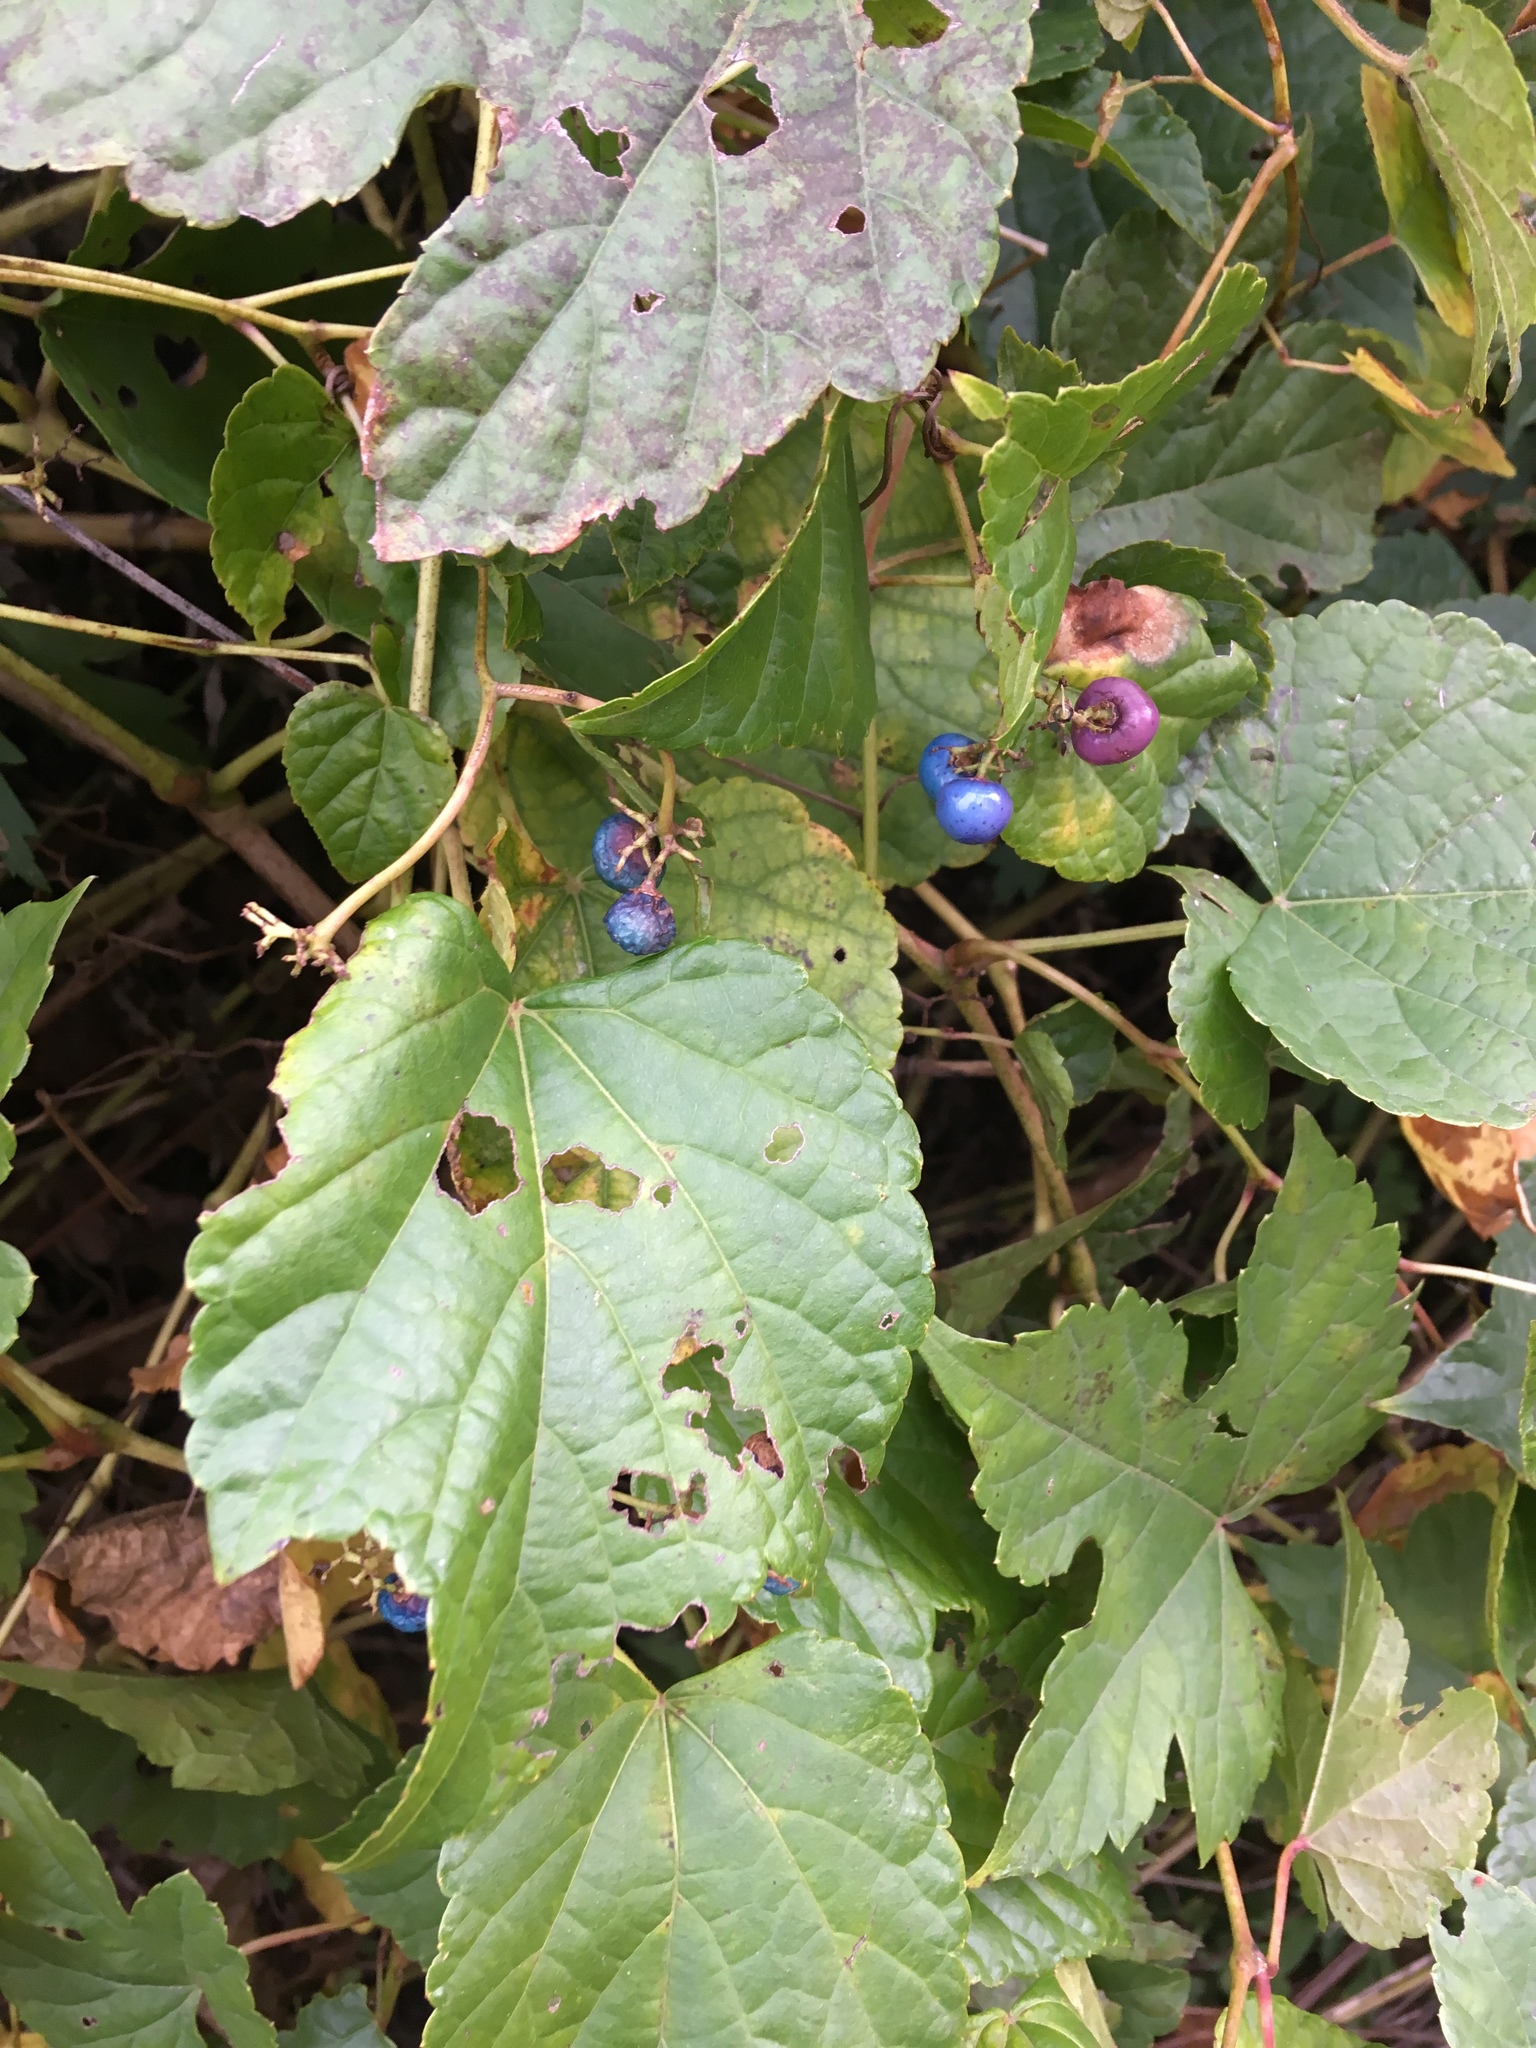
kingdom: Plantae
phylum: Tracheophyta
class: Magnoliopsida
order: Vitales
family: Vitaceae
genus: Ampelopsis
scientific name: Ampelopsis glandulosa
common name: Amur peppervine
